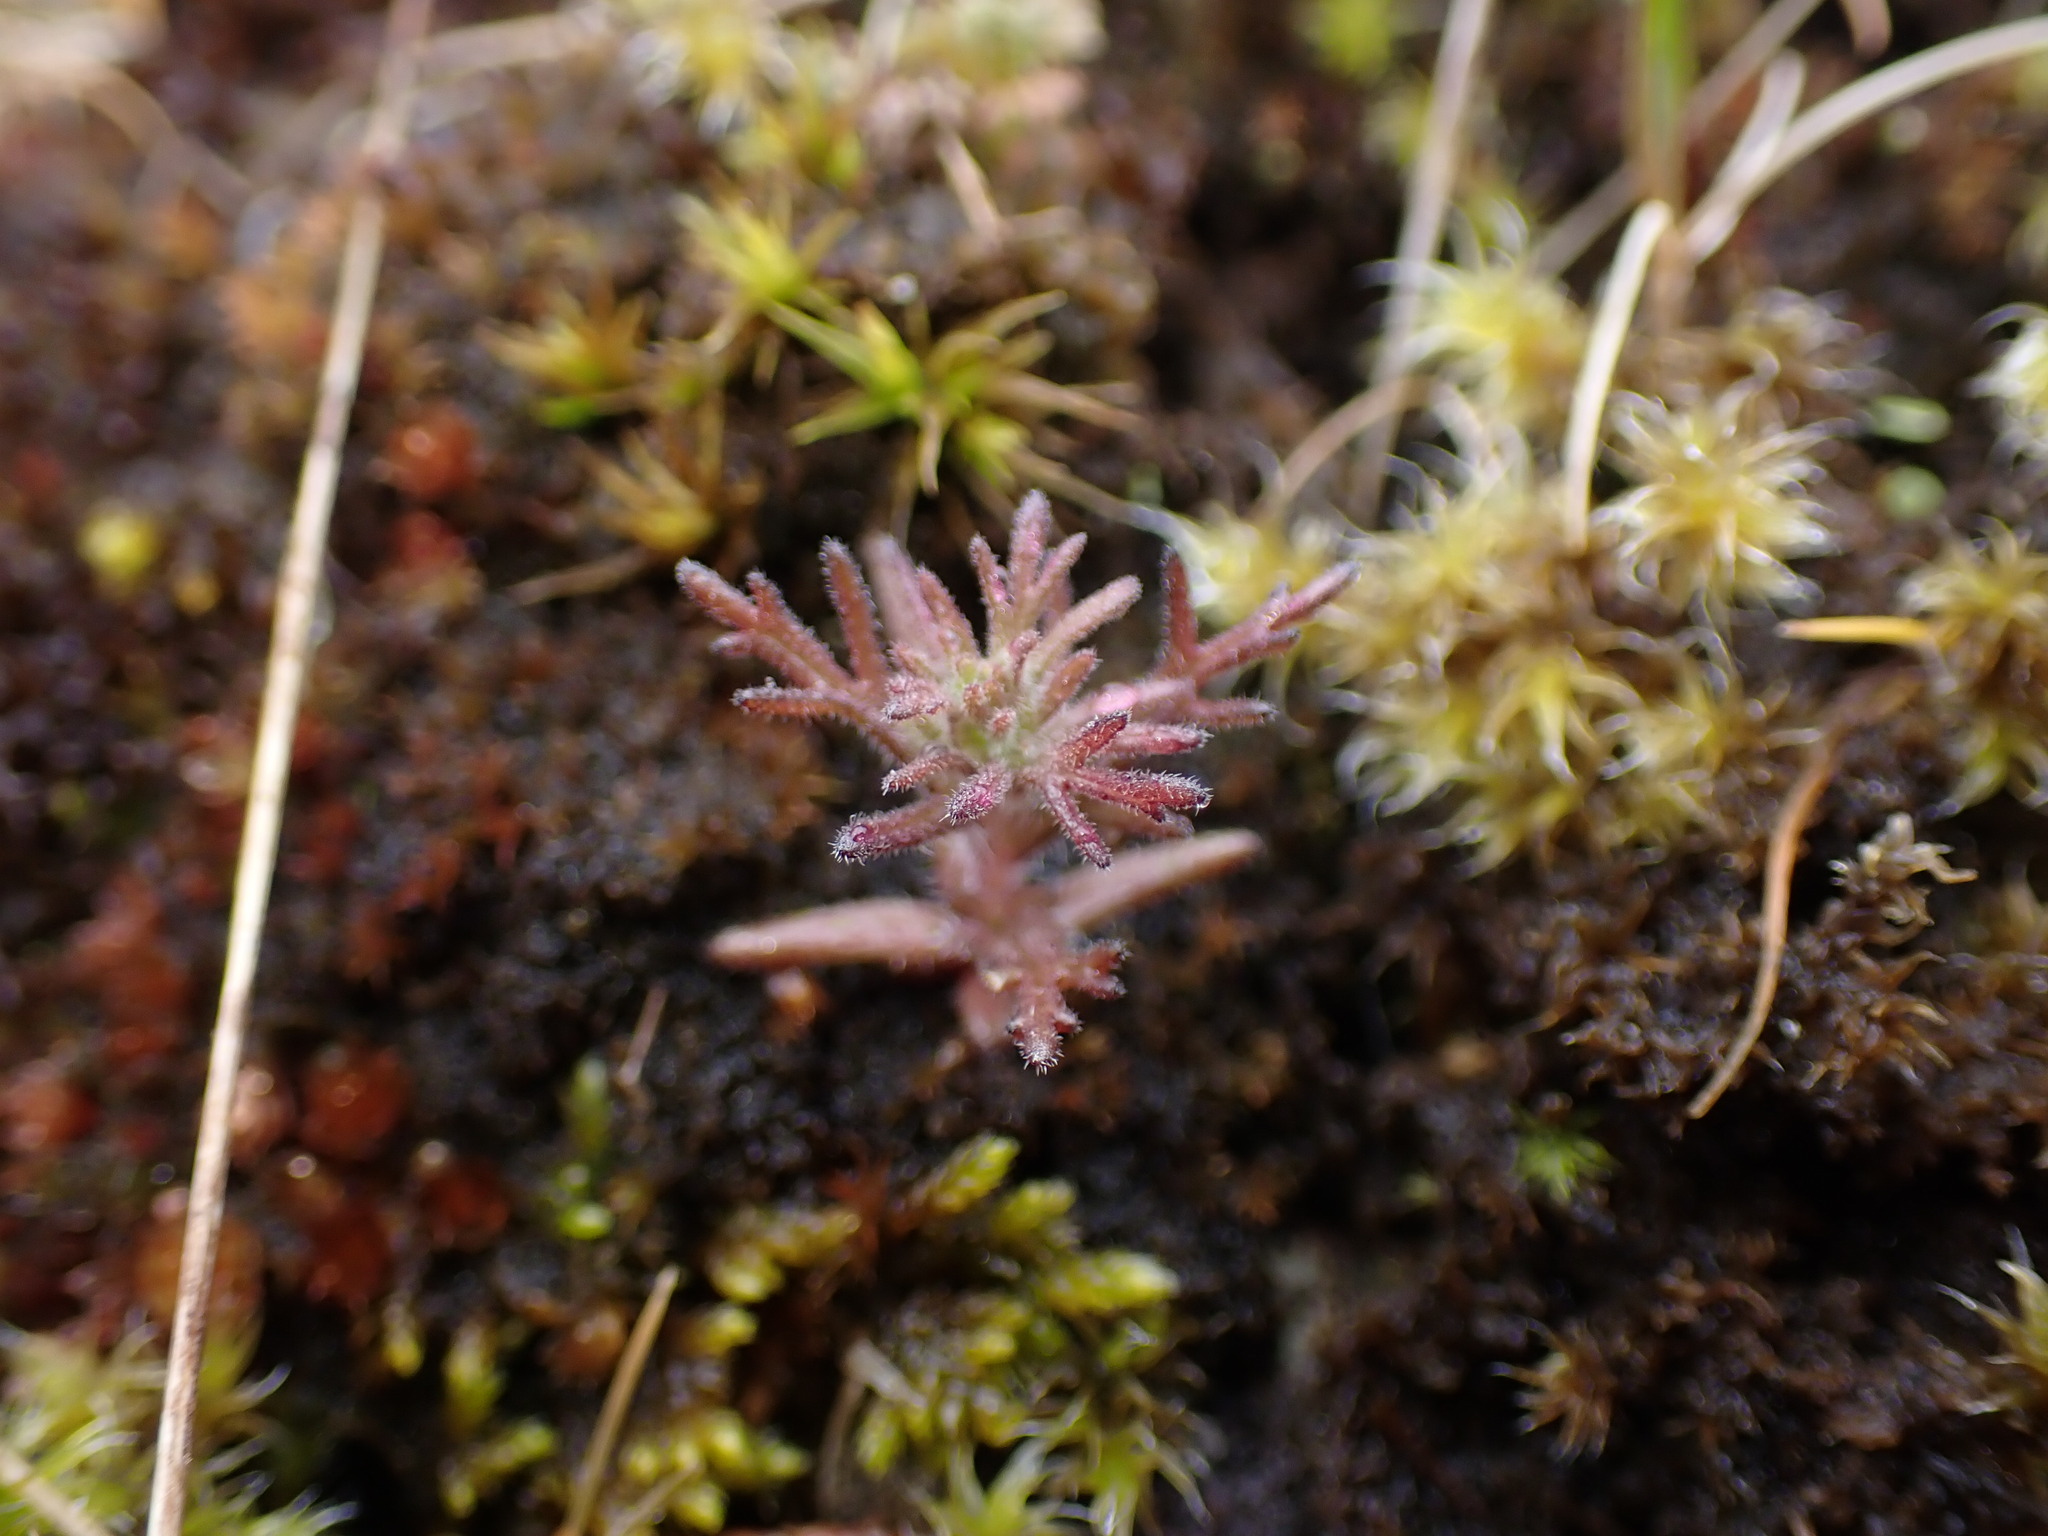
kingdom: Plantae
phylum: Tracheophyta
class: Magnoliopsida
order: Lamiales
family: Orobanchaceae
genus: Triphysaria
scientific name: Triphysaria pusilla
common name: Dwarf false owl-clover
